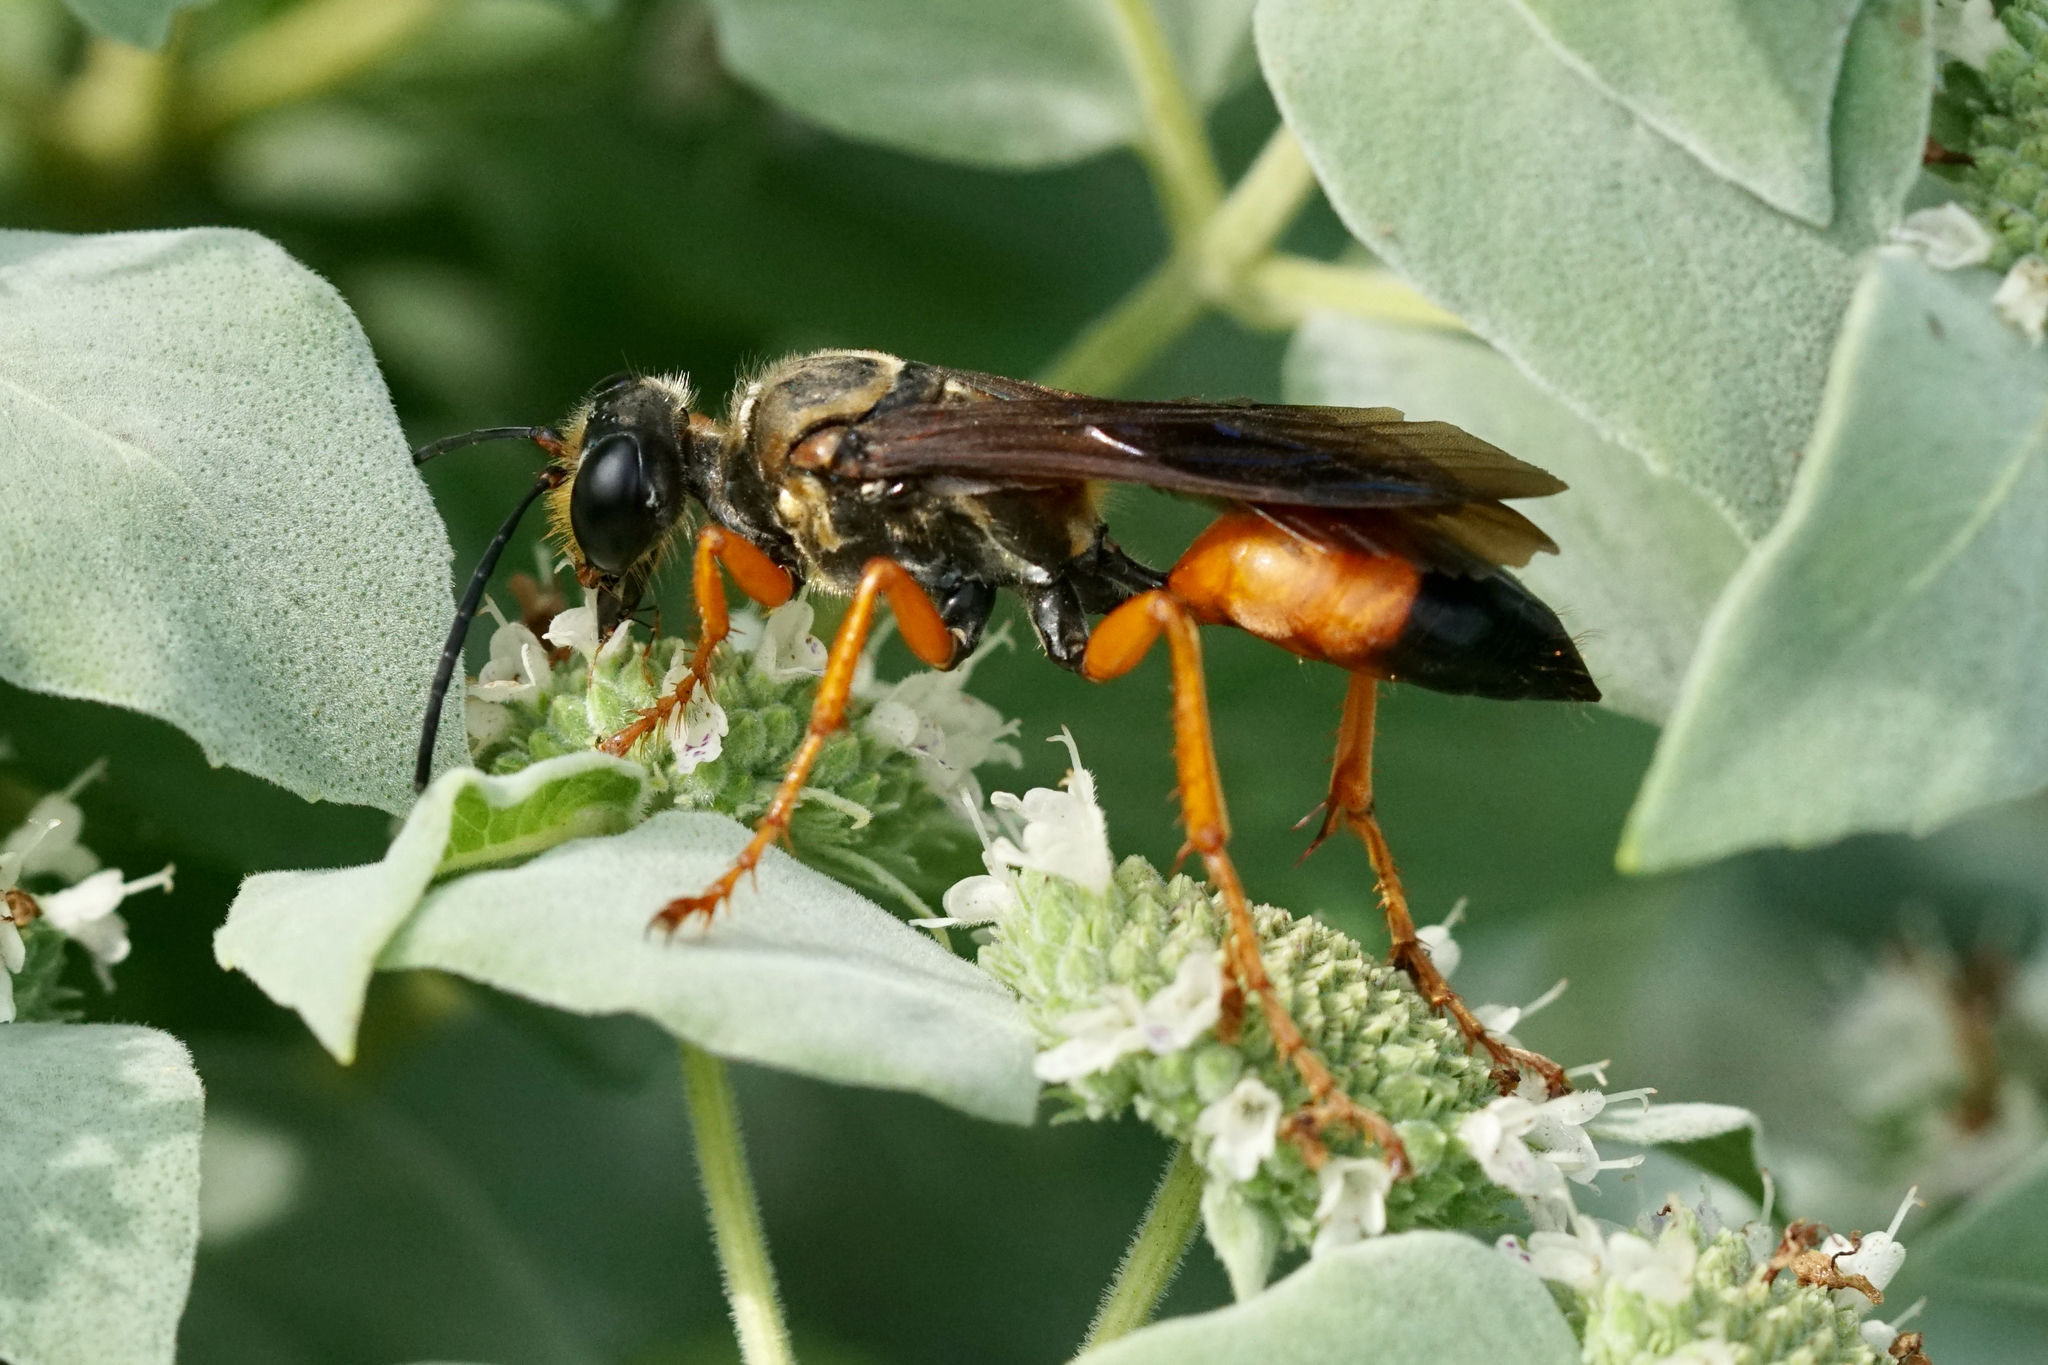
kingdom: Animalia
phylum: Arthropoda
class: Insecta
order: Hymenoptera
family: Sphecidae
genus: Sphex
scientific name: Sphex ichneumoneus
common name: Great golden digger wasp
